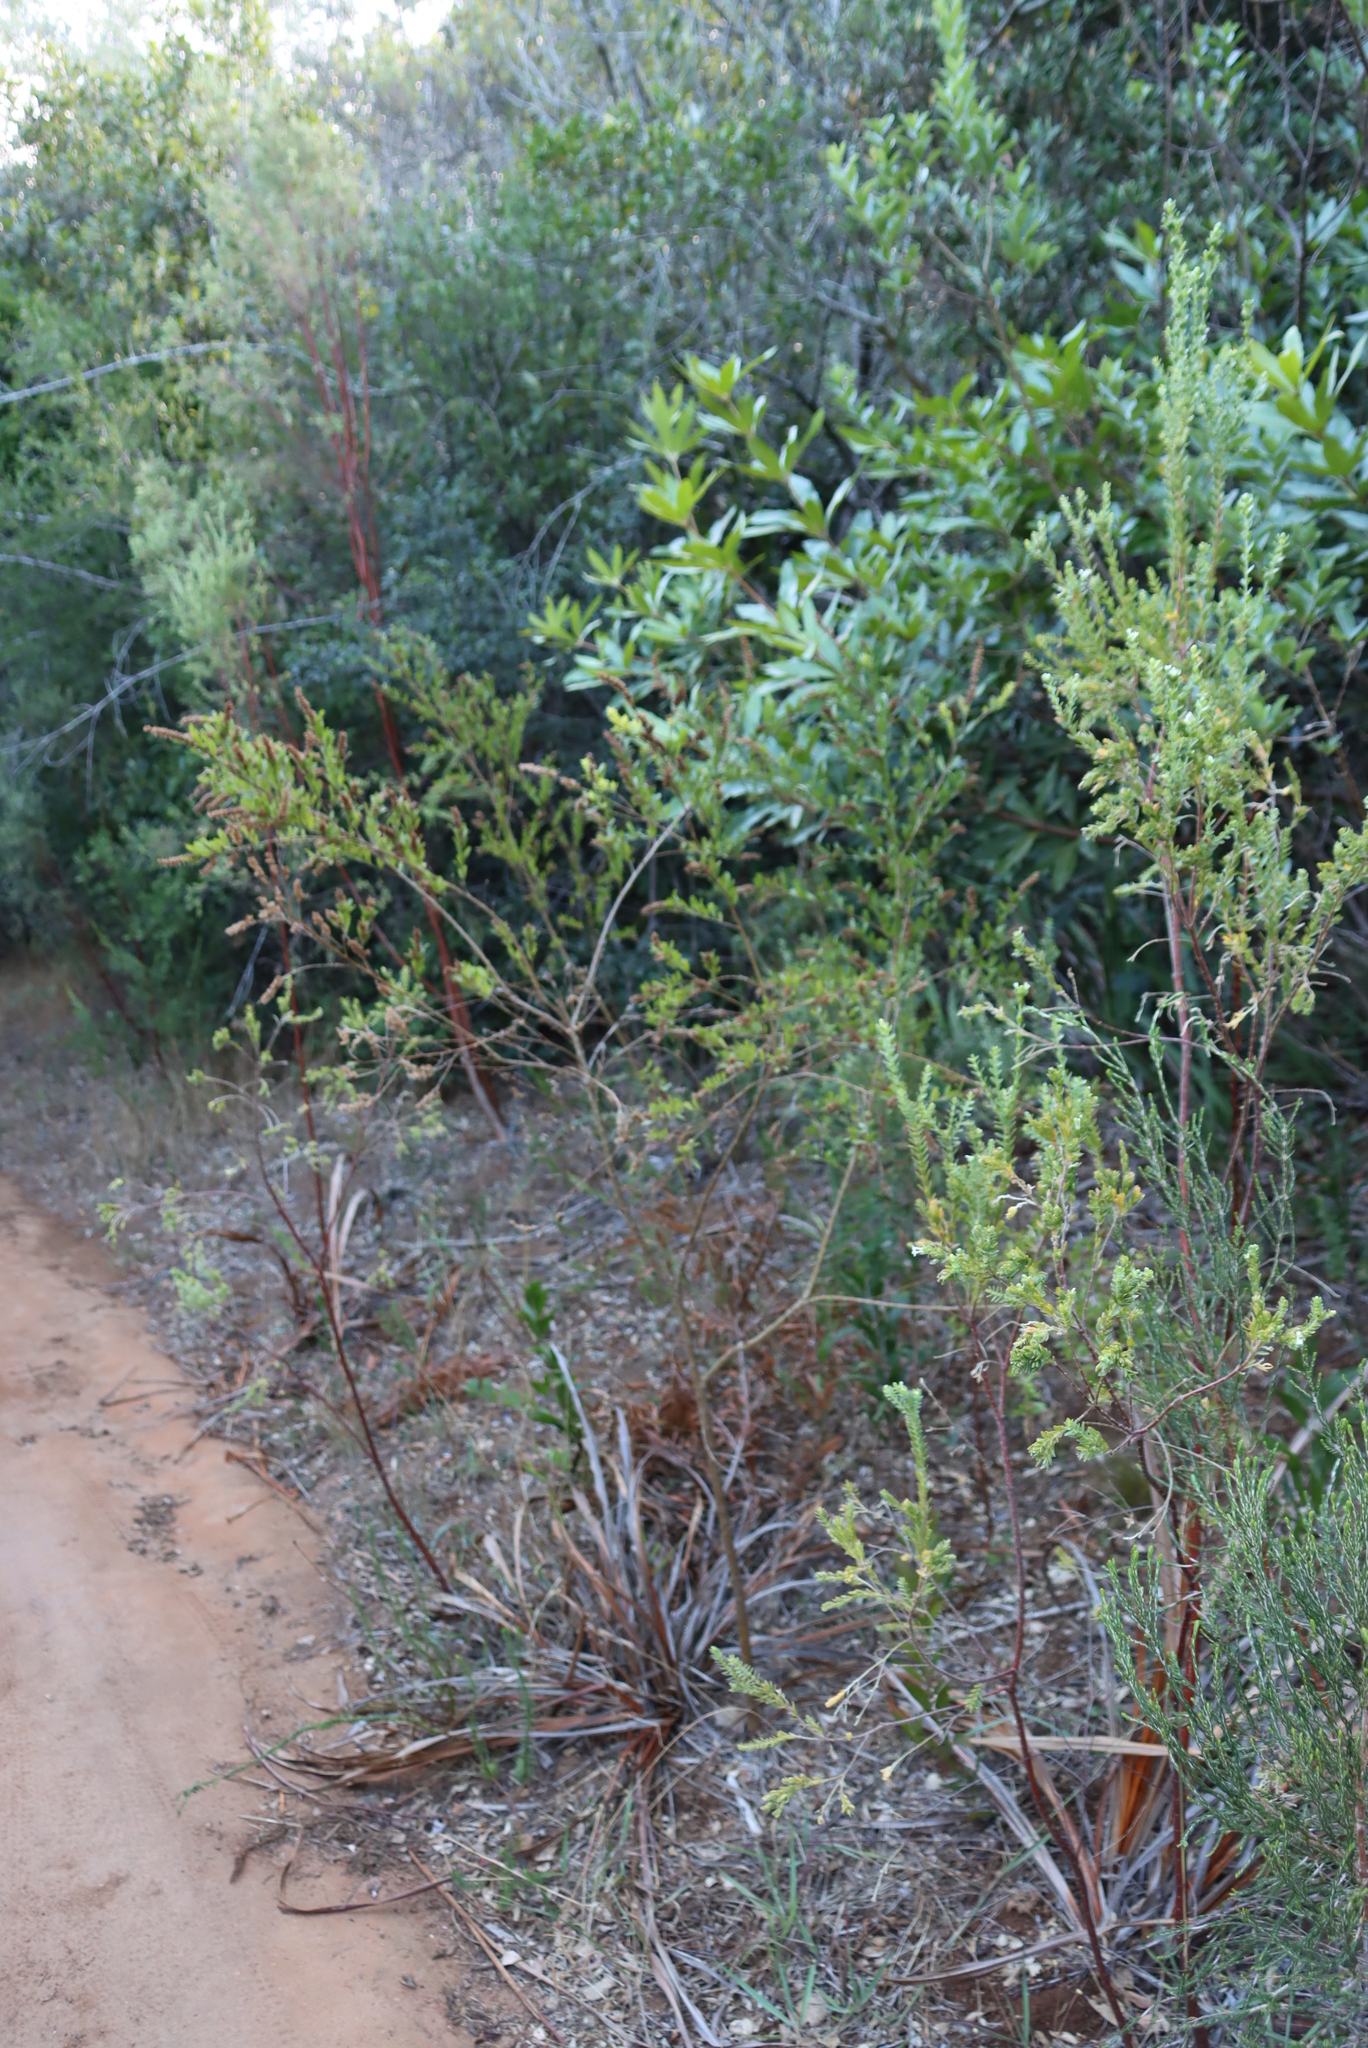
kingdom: Plantae
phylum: Tracheophyta
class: Magnoliopsida
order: Fabales
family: Fabaceae
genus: Psoralea
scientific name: Psoralea spicata
